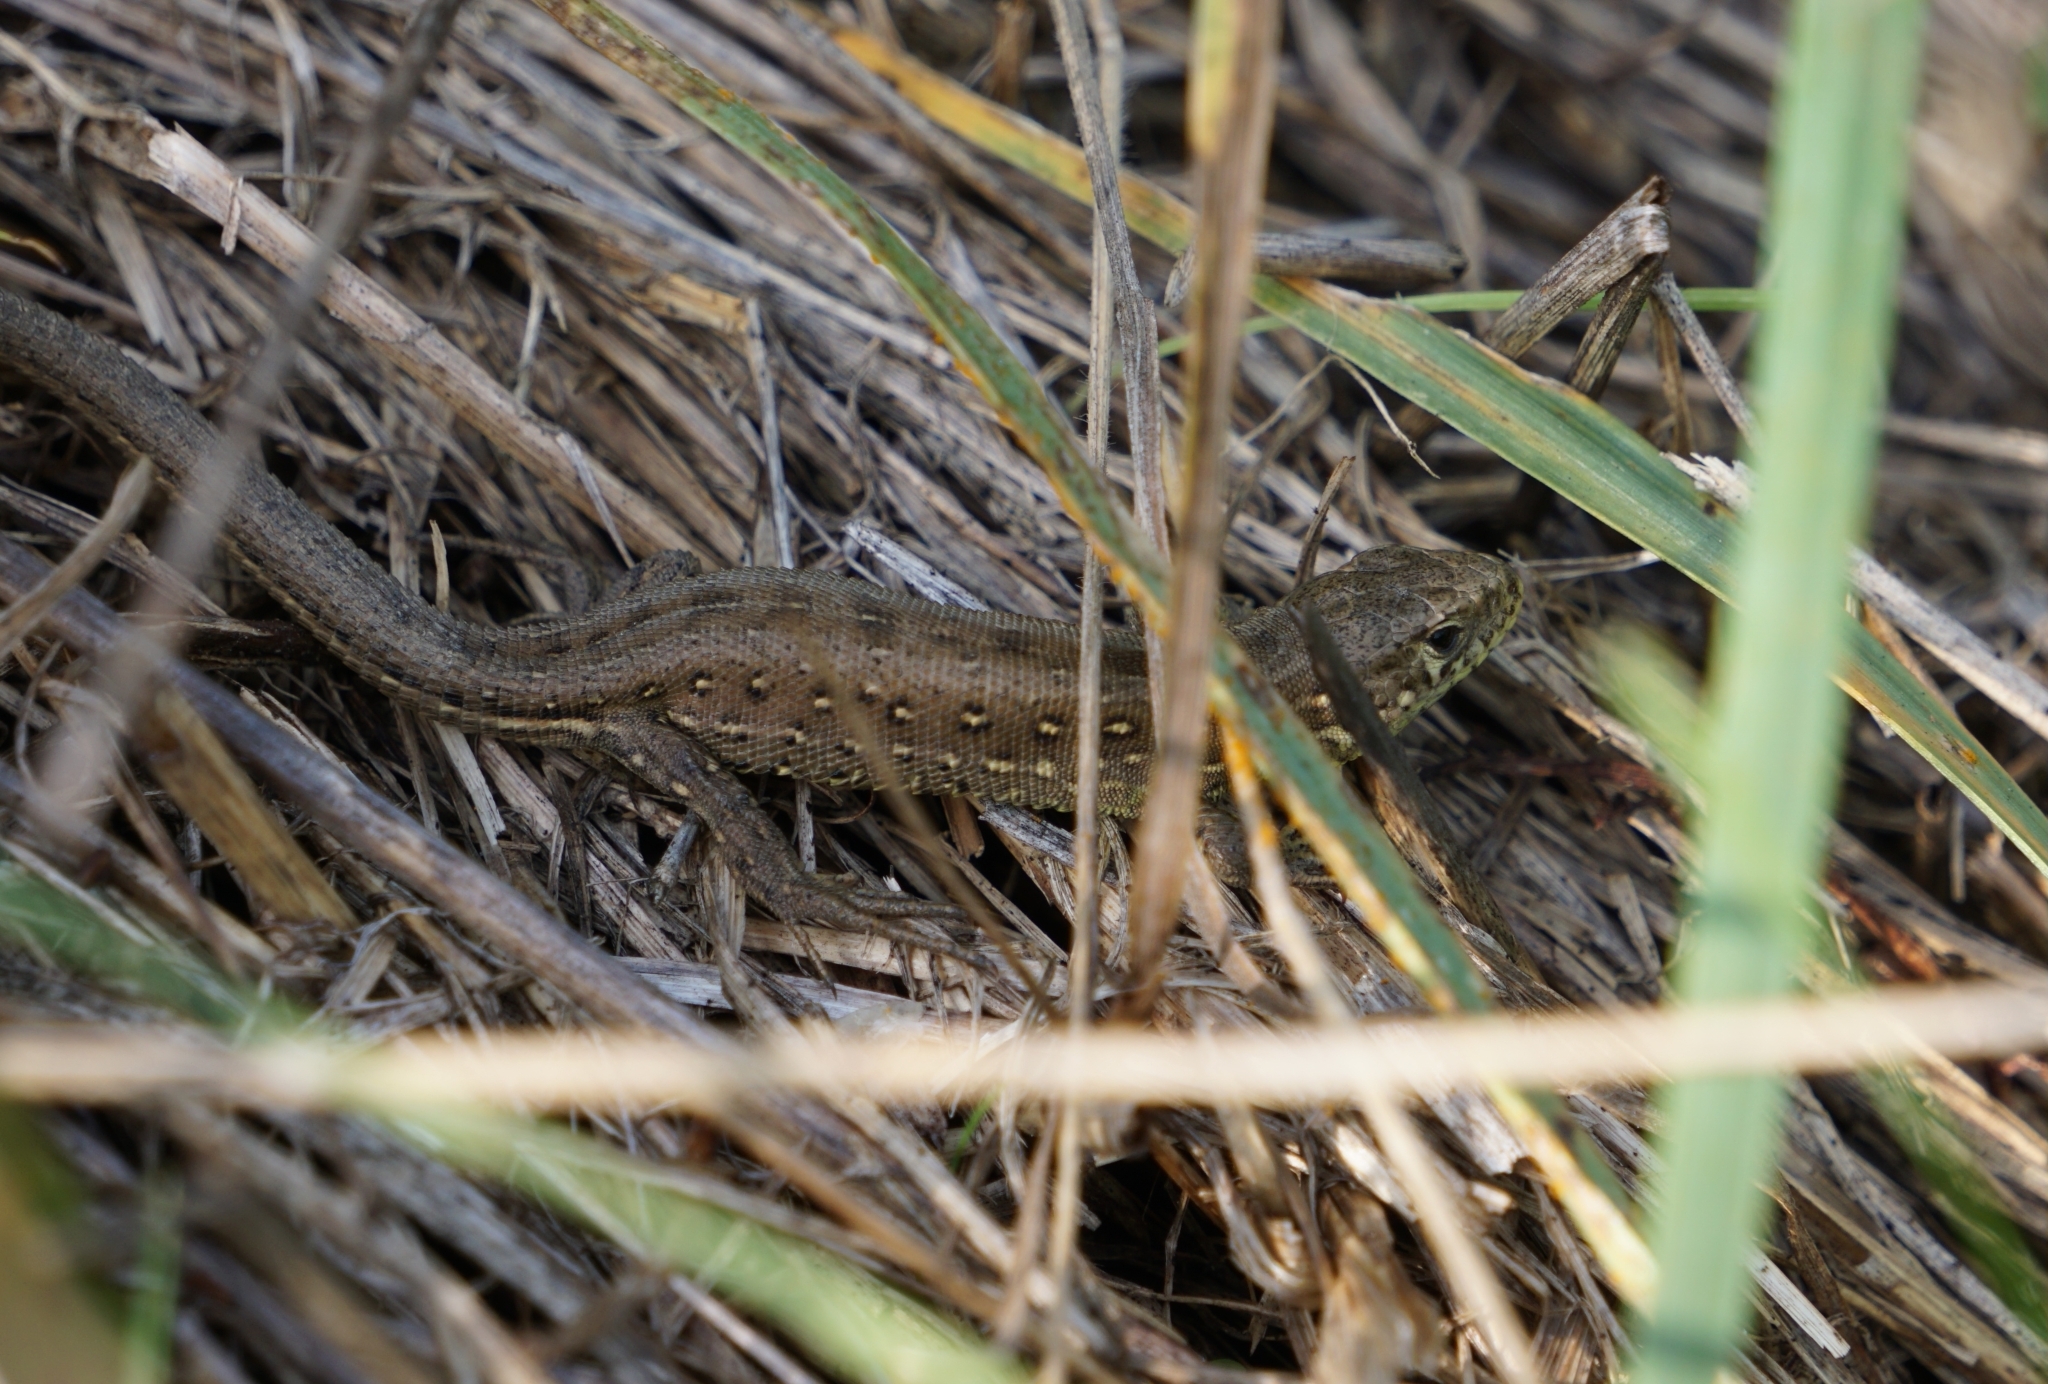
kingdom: Animalia
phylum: Chordata
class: Squamata
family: Lacertidae
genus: Lacerta
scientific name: Lacerta agilis
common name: Sand lizard
